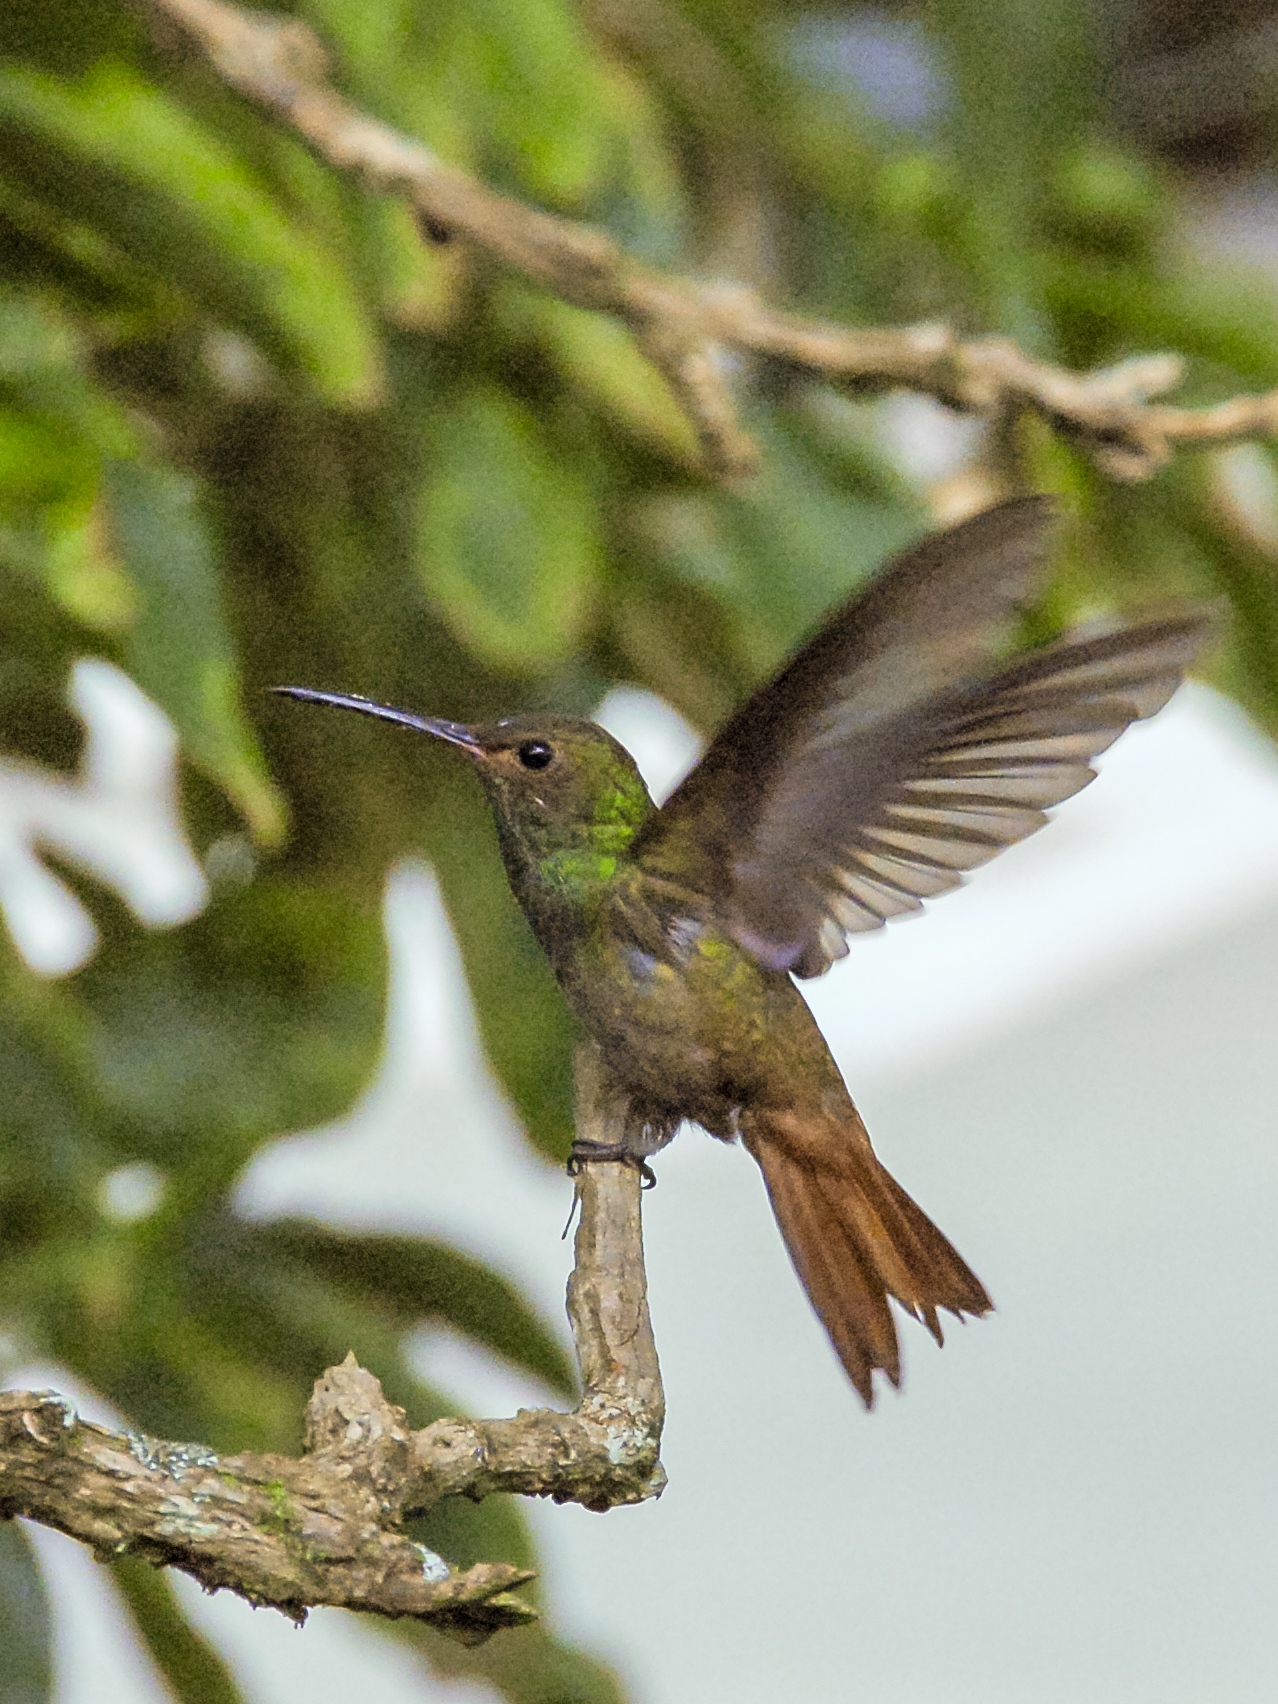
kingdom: Animalia
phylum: Chordata
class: Aves
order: Apodiformes
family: Trochilidae
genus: Amazilia
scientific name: Amazilia tzacatl
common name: Rufous-tailed hummingbird
